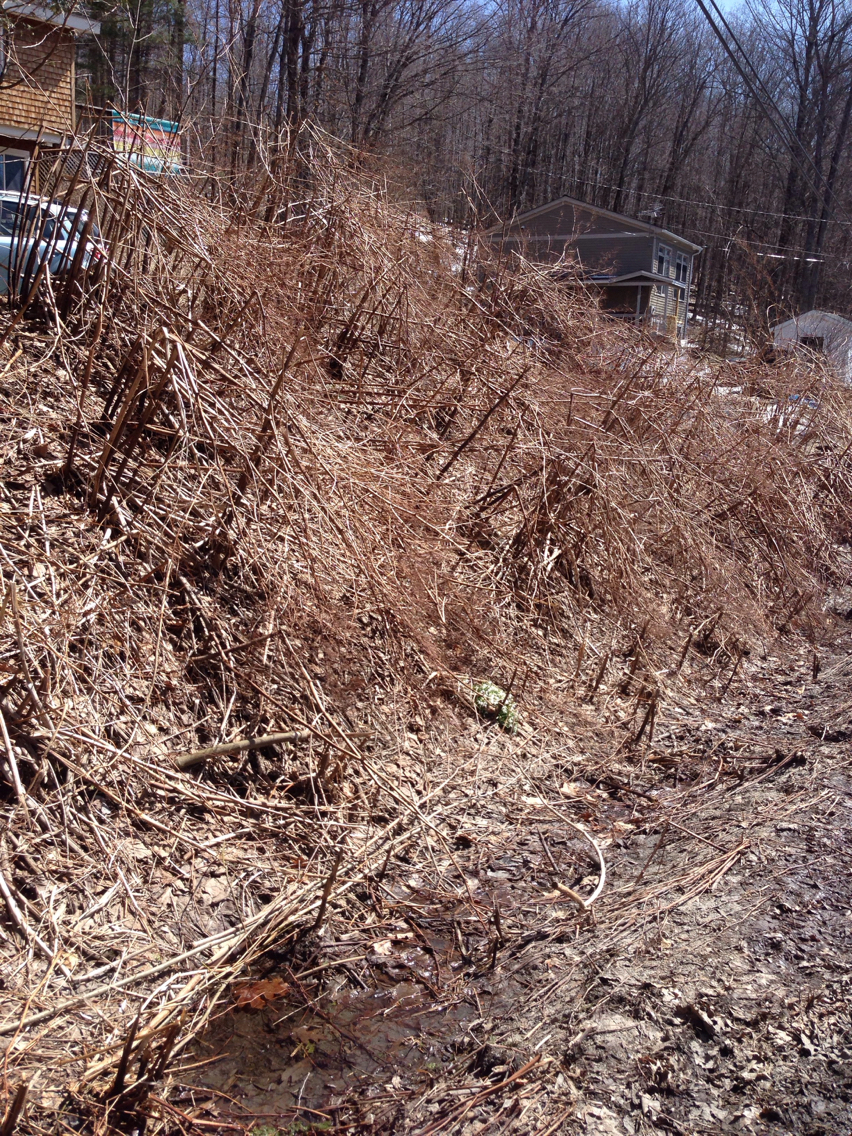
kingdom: Plantae
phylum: Tracheophyta
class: Magnoliopsida
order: Caryophyllales
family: Polygonaceae
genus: Reynoutria
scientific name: Reynoutria japonica
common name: Japanese knotweed
